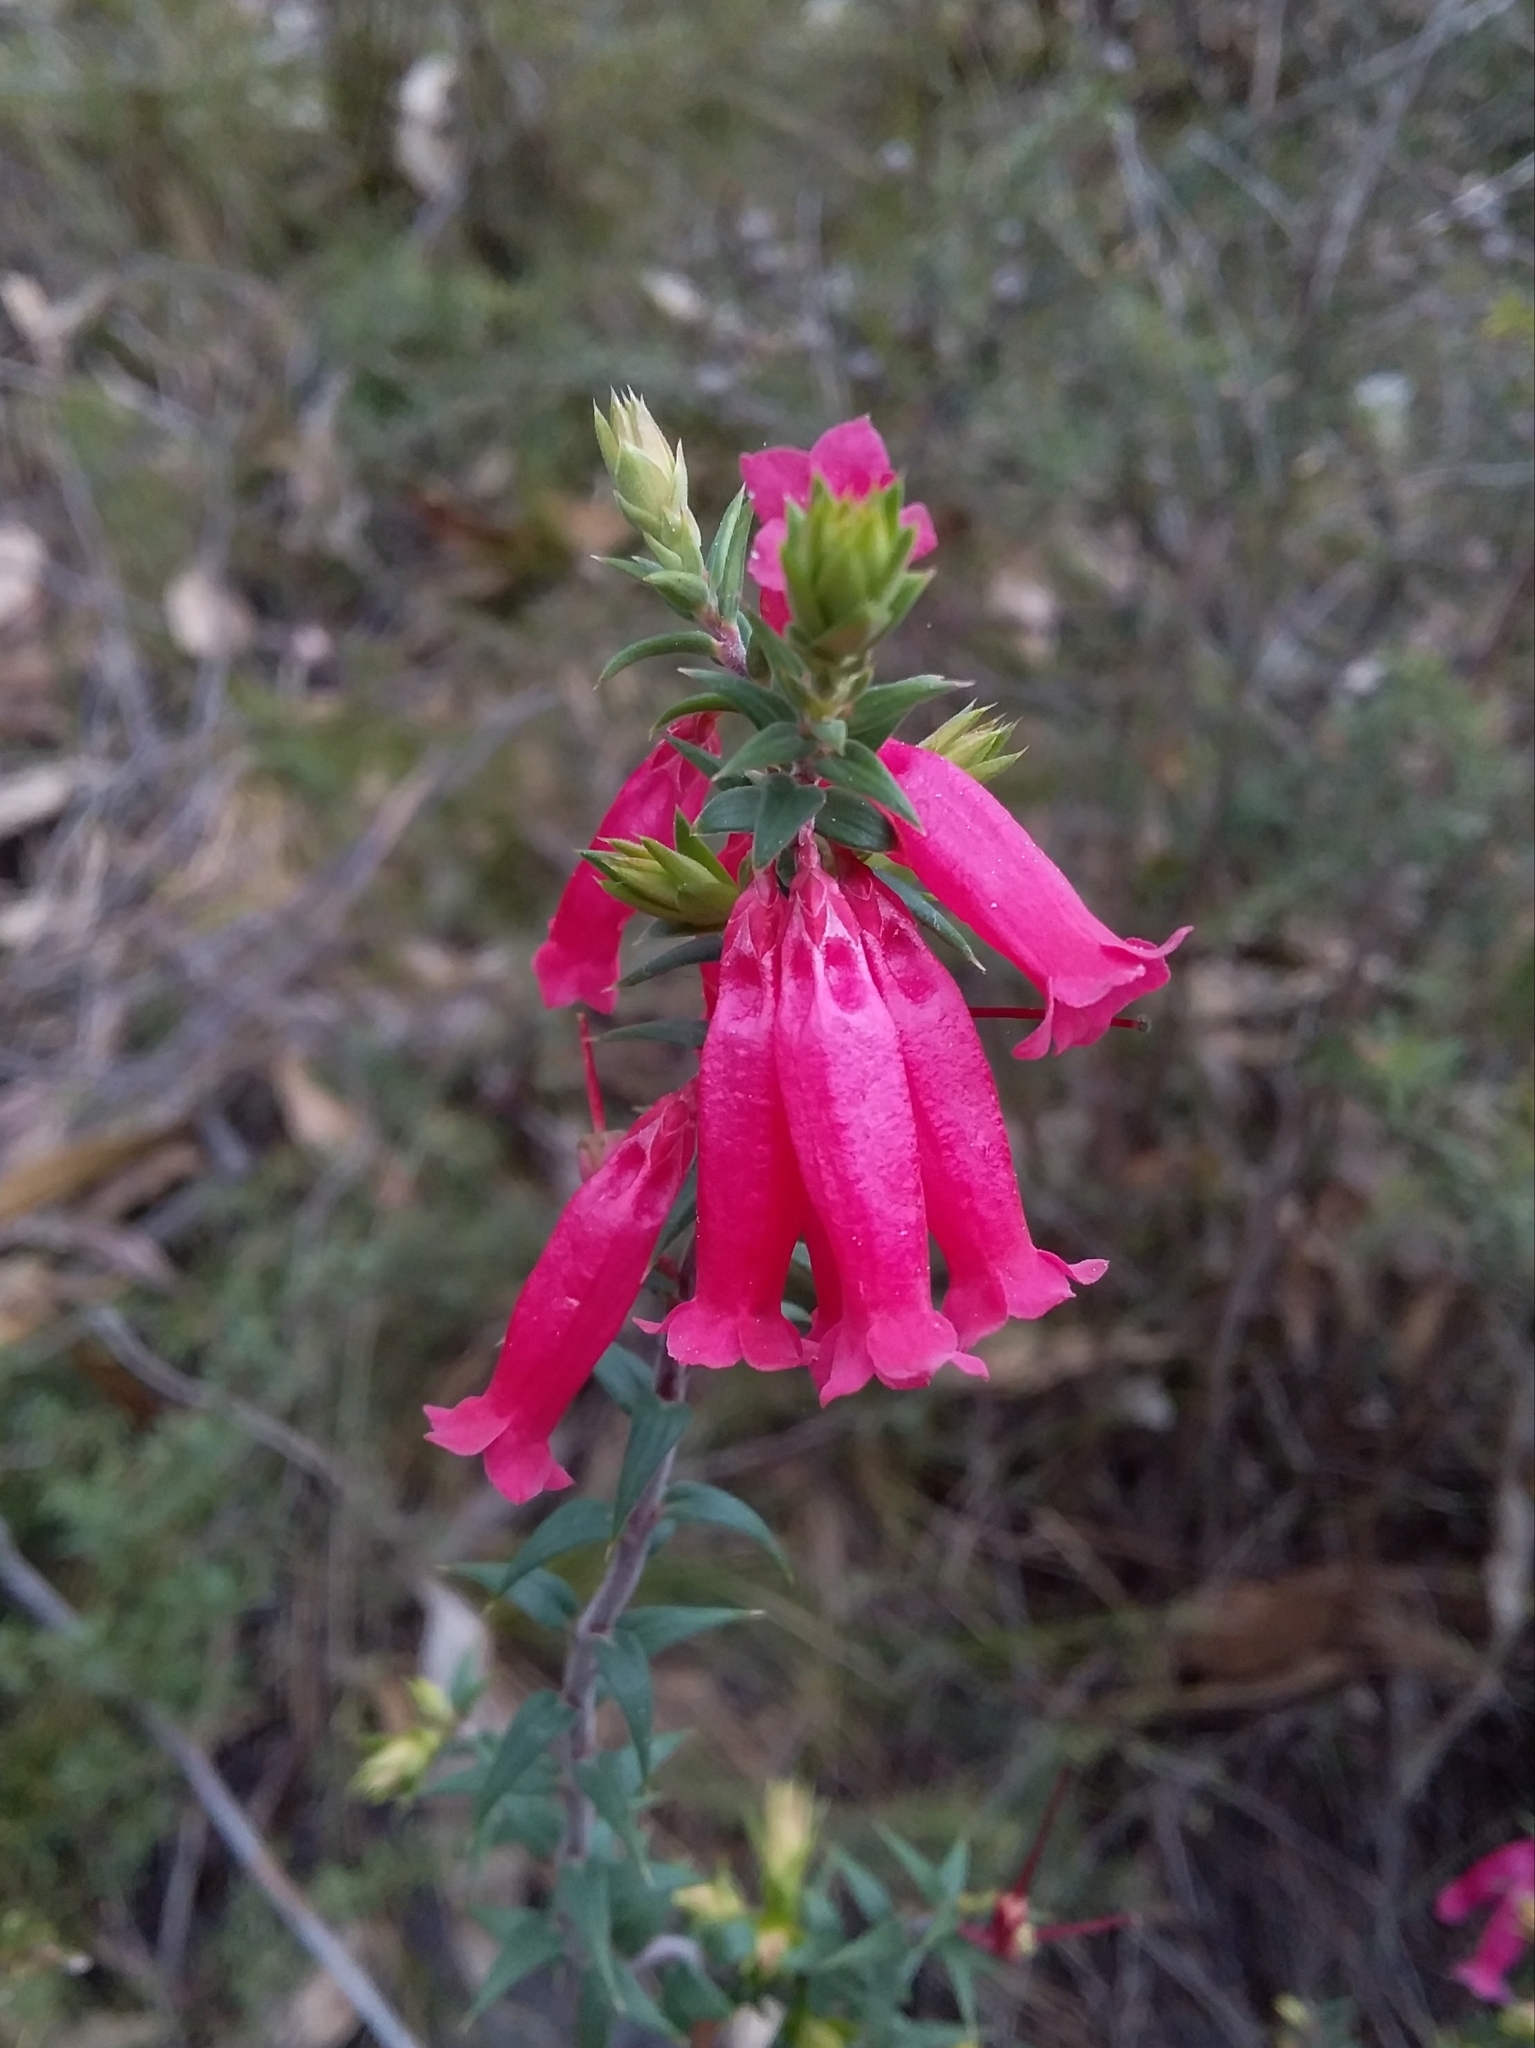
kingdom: Plantae
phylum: Tracheophyta
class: Magnoliopsida
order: Ericales
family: Ericaceae
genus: Epacris
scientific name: Epacris impressa
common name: Common-heath
